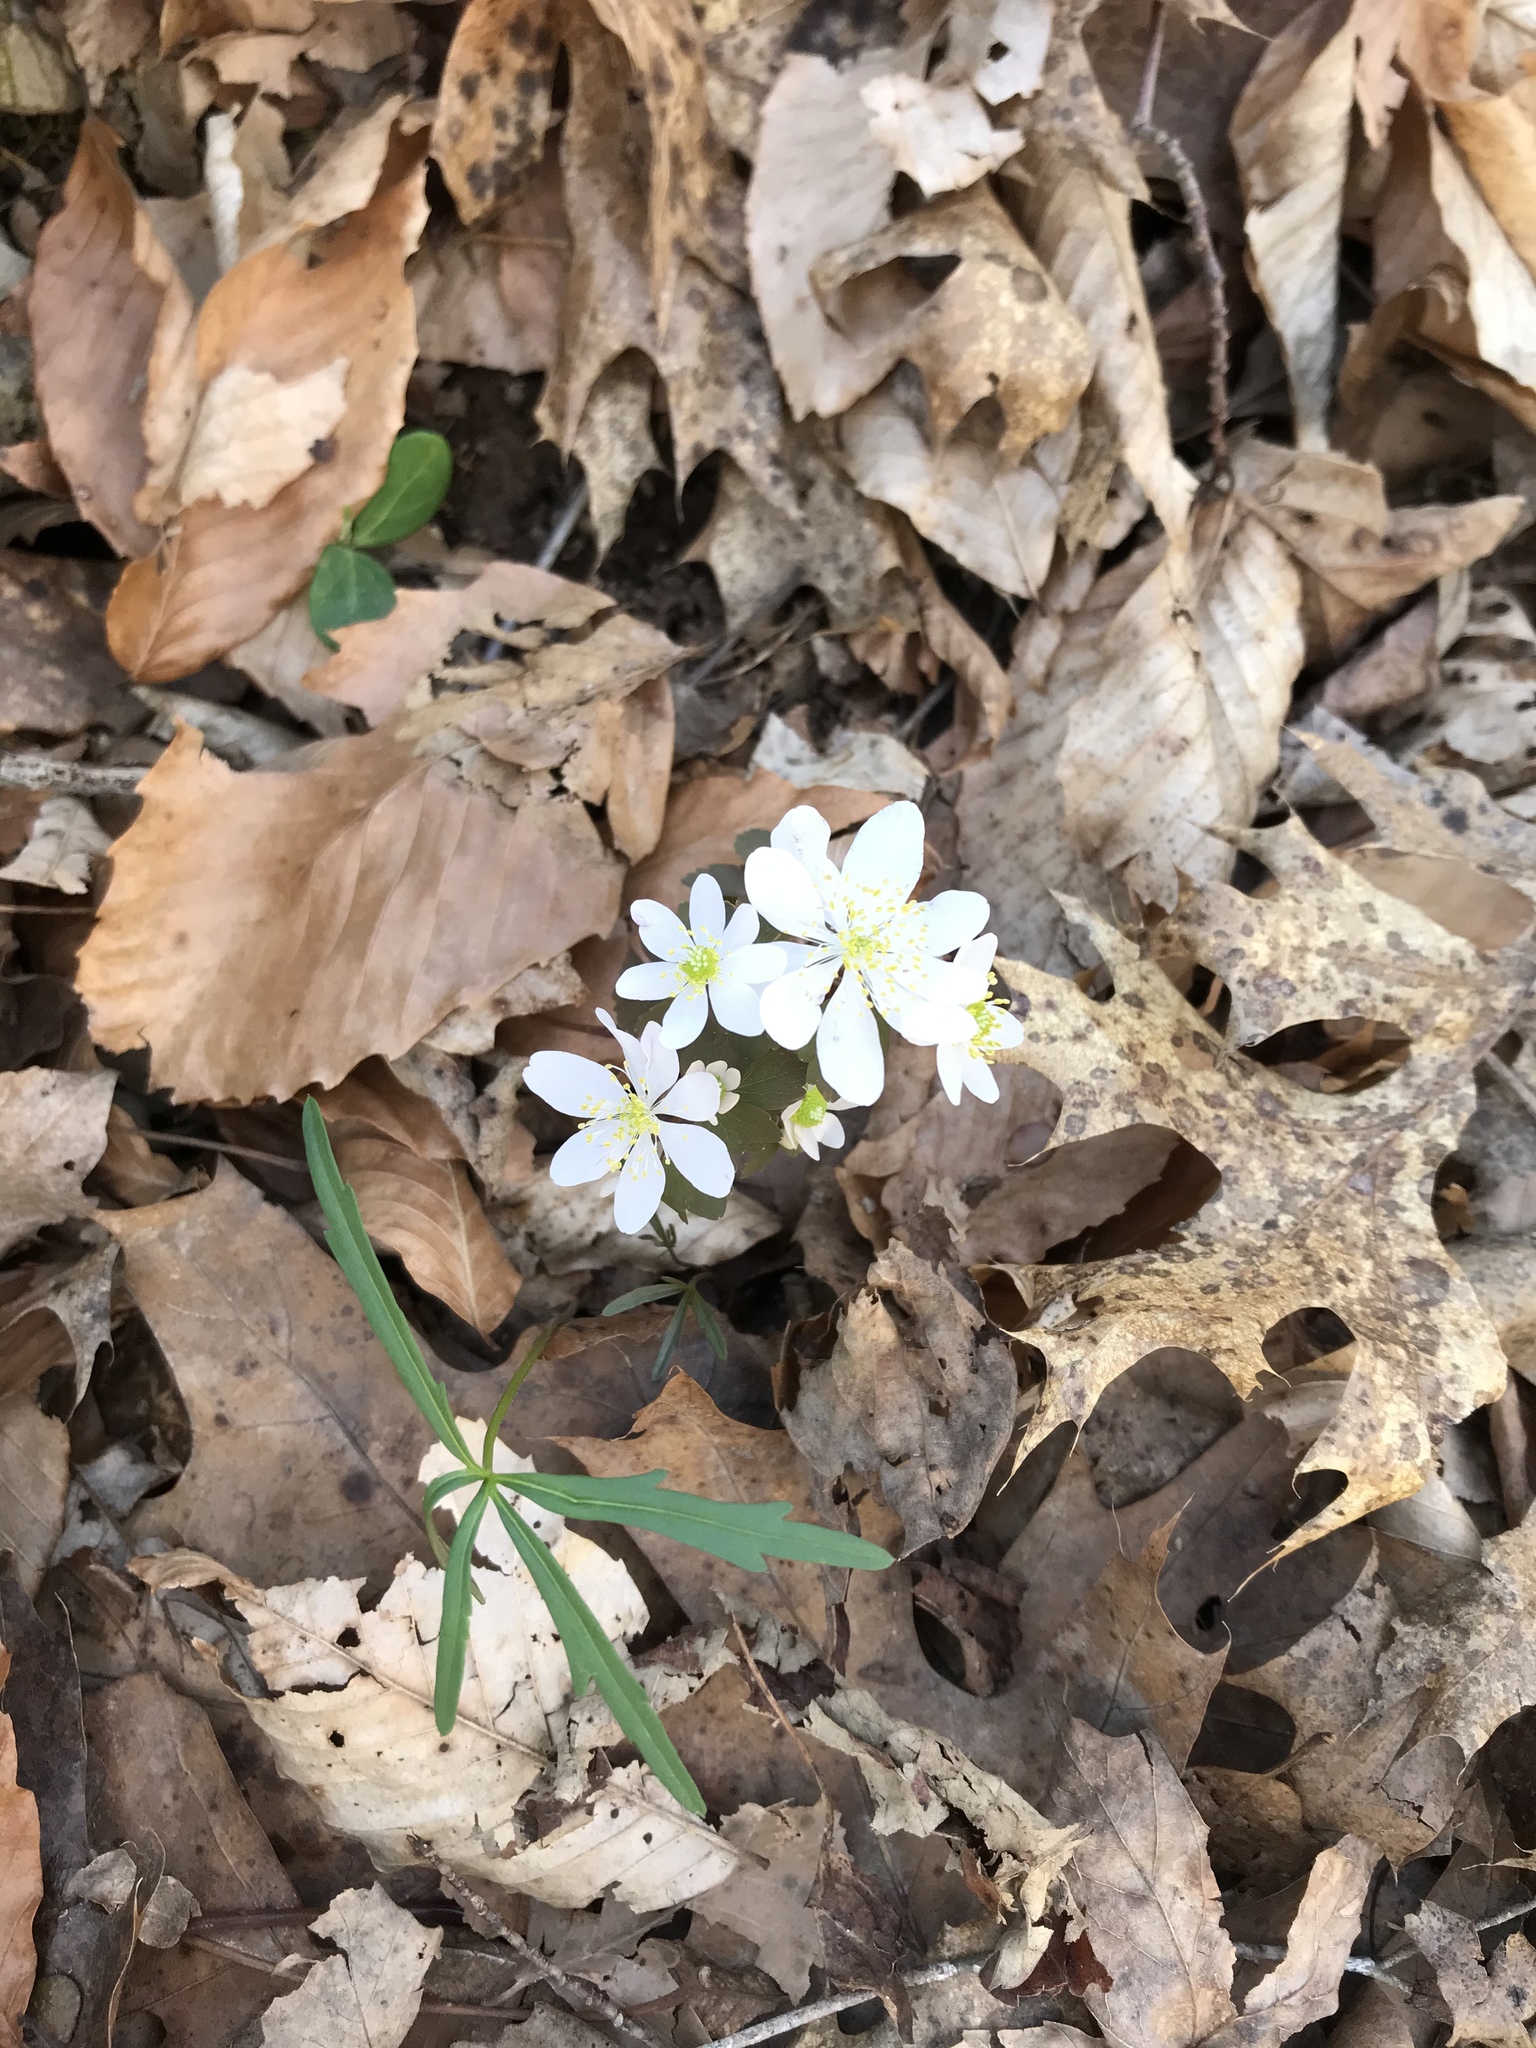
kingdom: Plantae
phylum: Tracheophyta
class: Magnoliopsida
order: Ranunculales
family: Ranunculaceae
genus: Thalictrum
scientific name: Thalictrum thalictroides
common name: Rue-anemone
